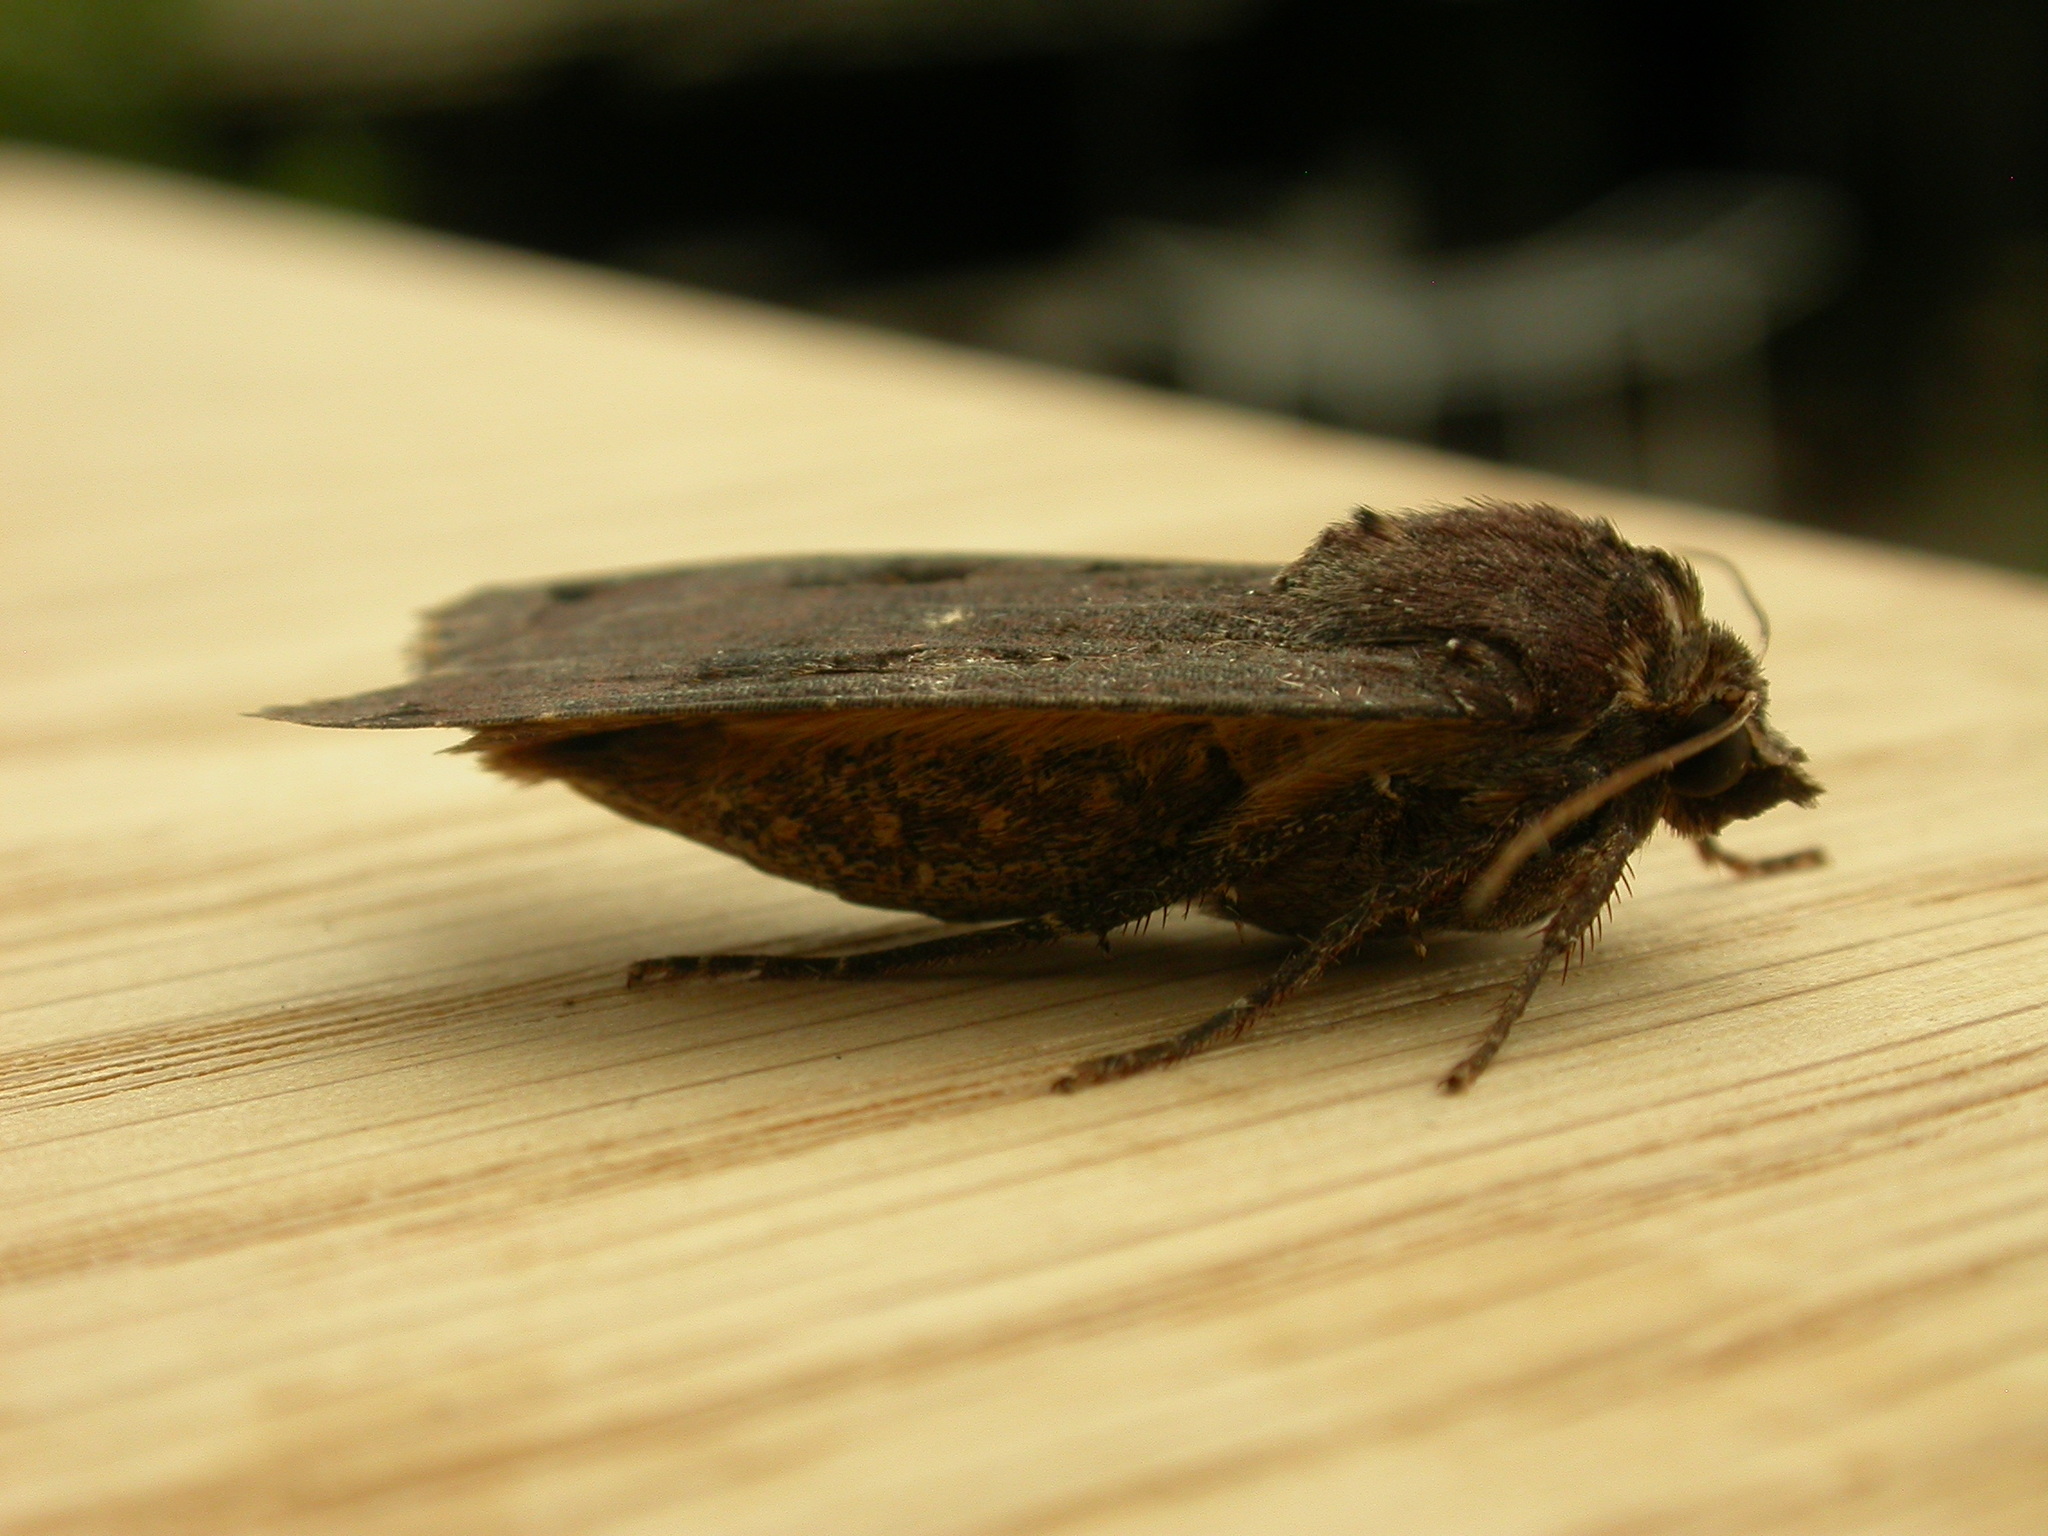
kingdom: Animalia
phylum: Arthropoda
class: Insecta
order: Lepidoptera
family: Noctuidae
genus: Noctua
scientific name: Noctua pronuba
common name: Large yellow underwing
